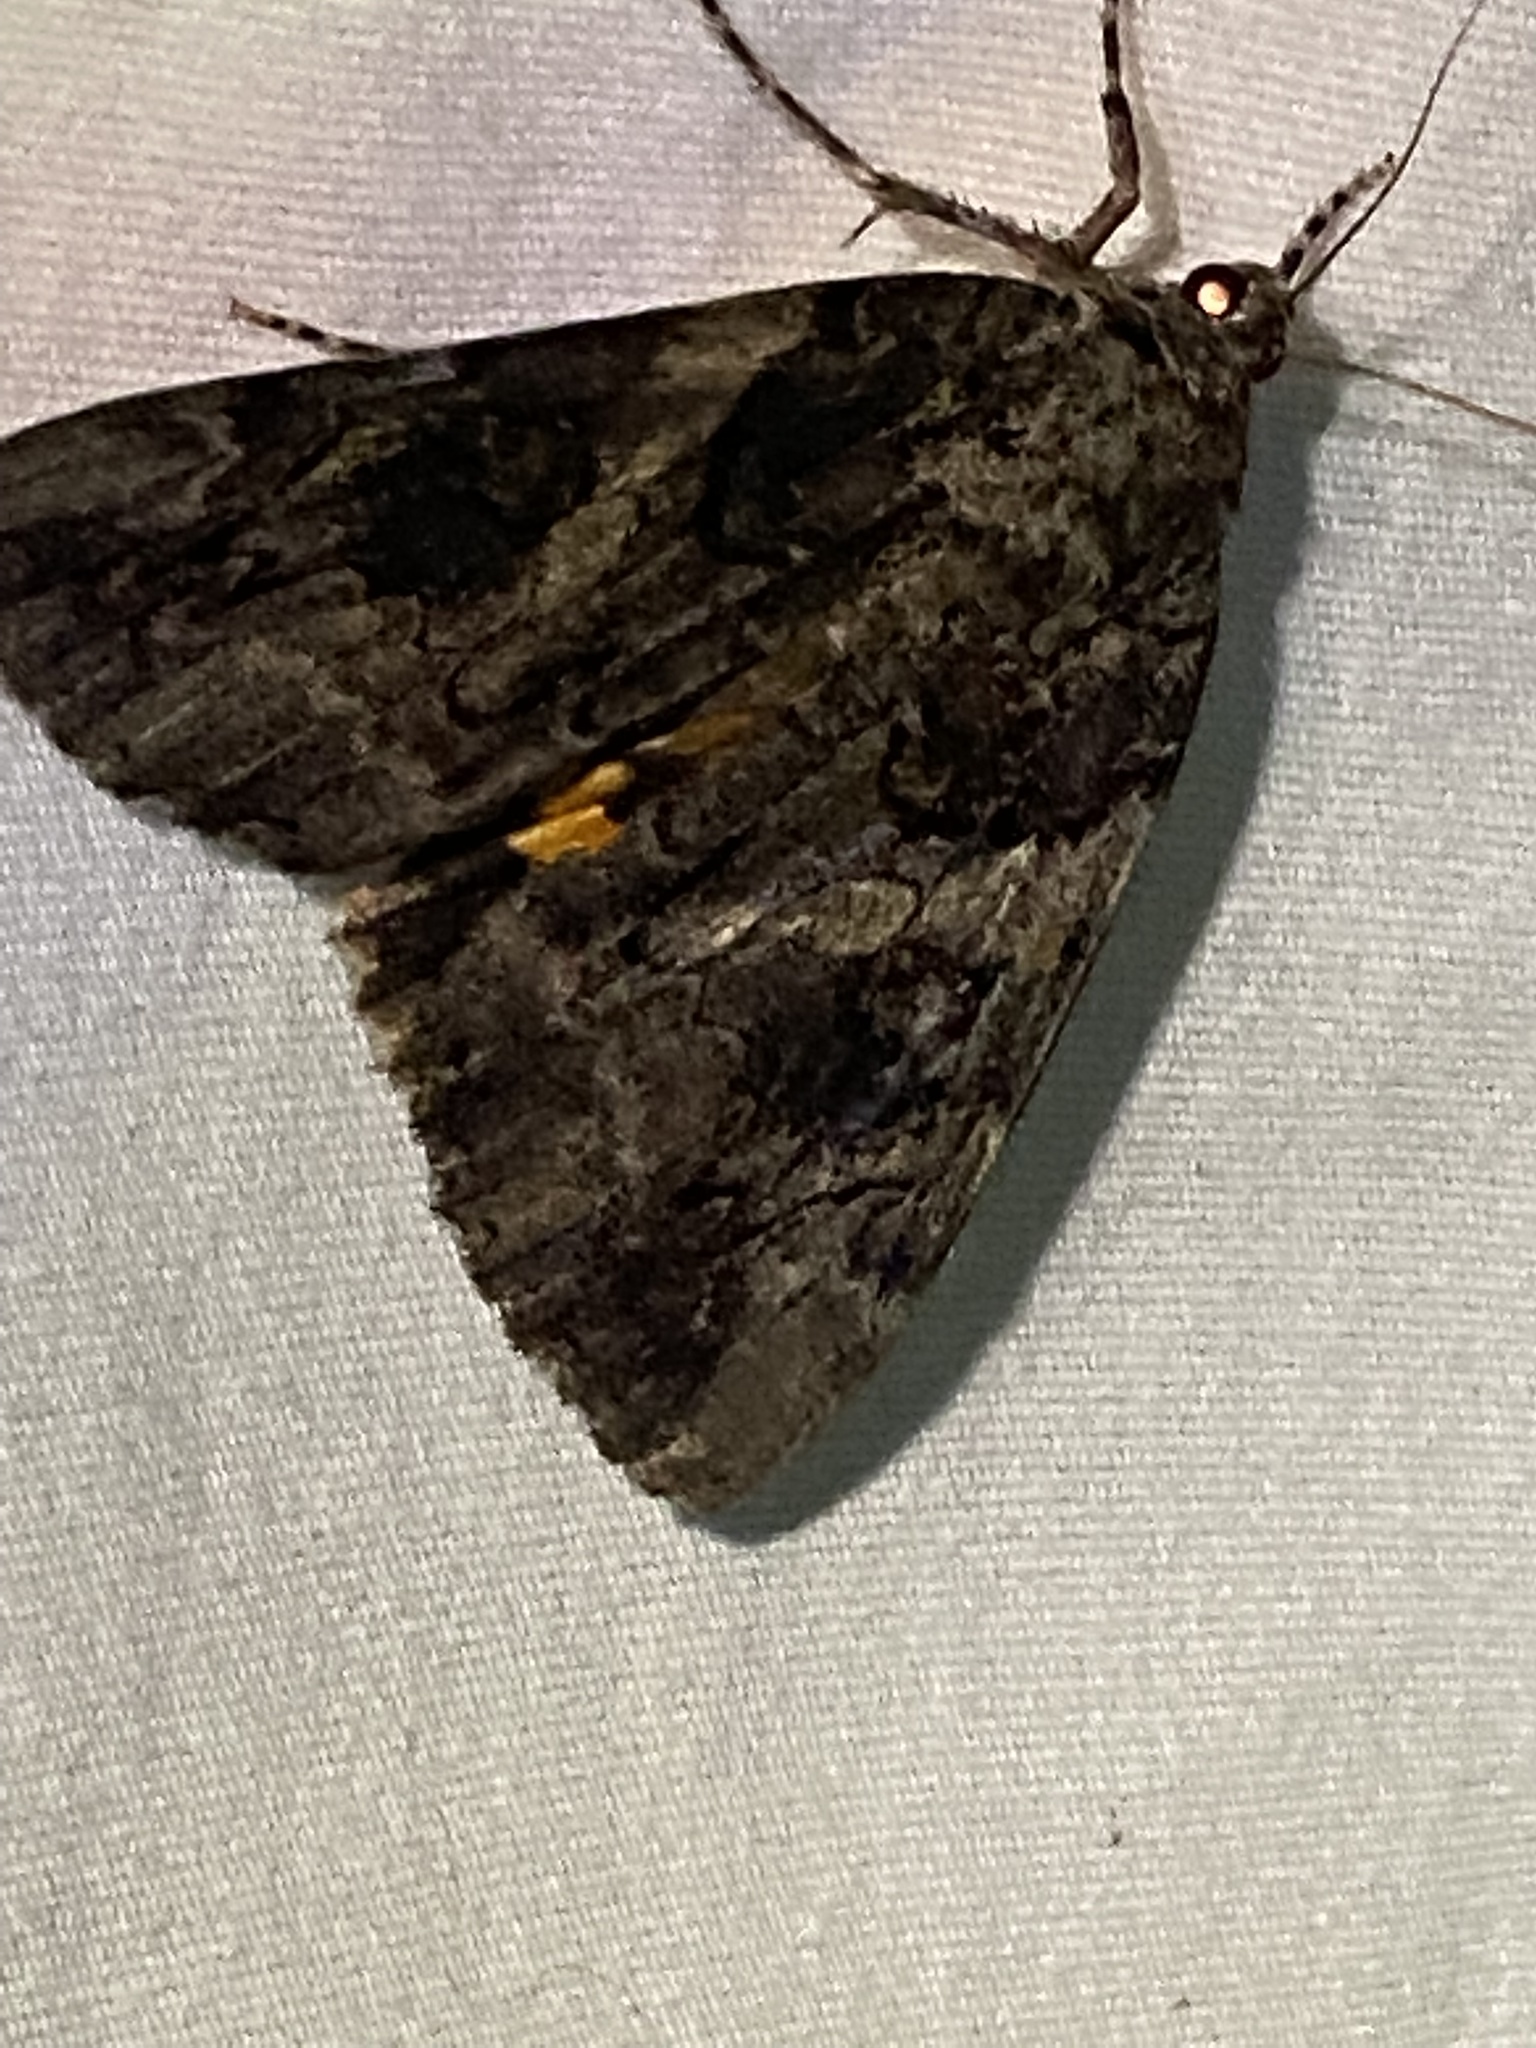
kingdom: Animalia
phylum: Arthropoda
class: Insecta
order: Lepidoptera
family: Erebidae
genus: Catocala
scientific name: Catocala piatrix
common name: The penitent underwing
